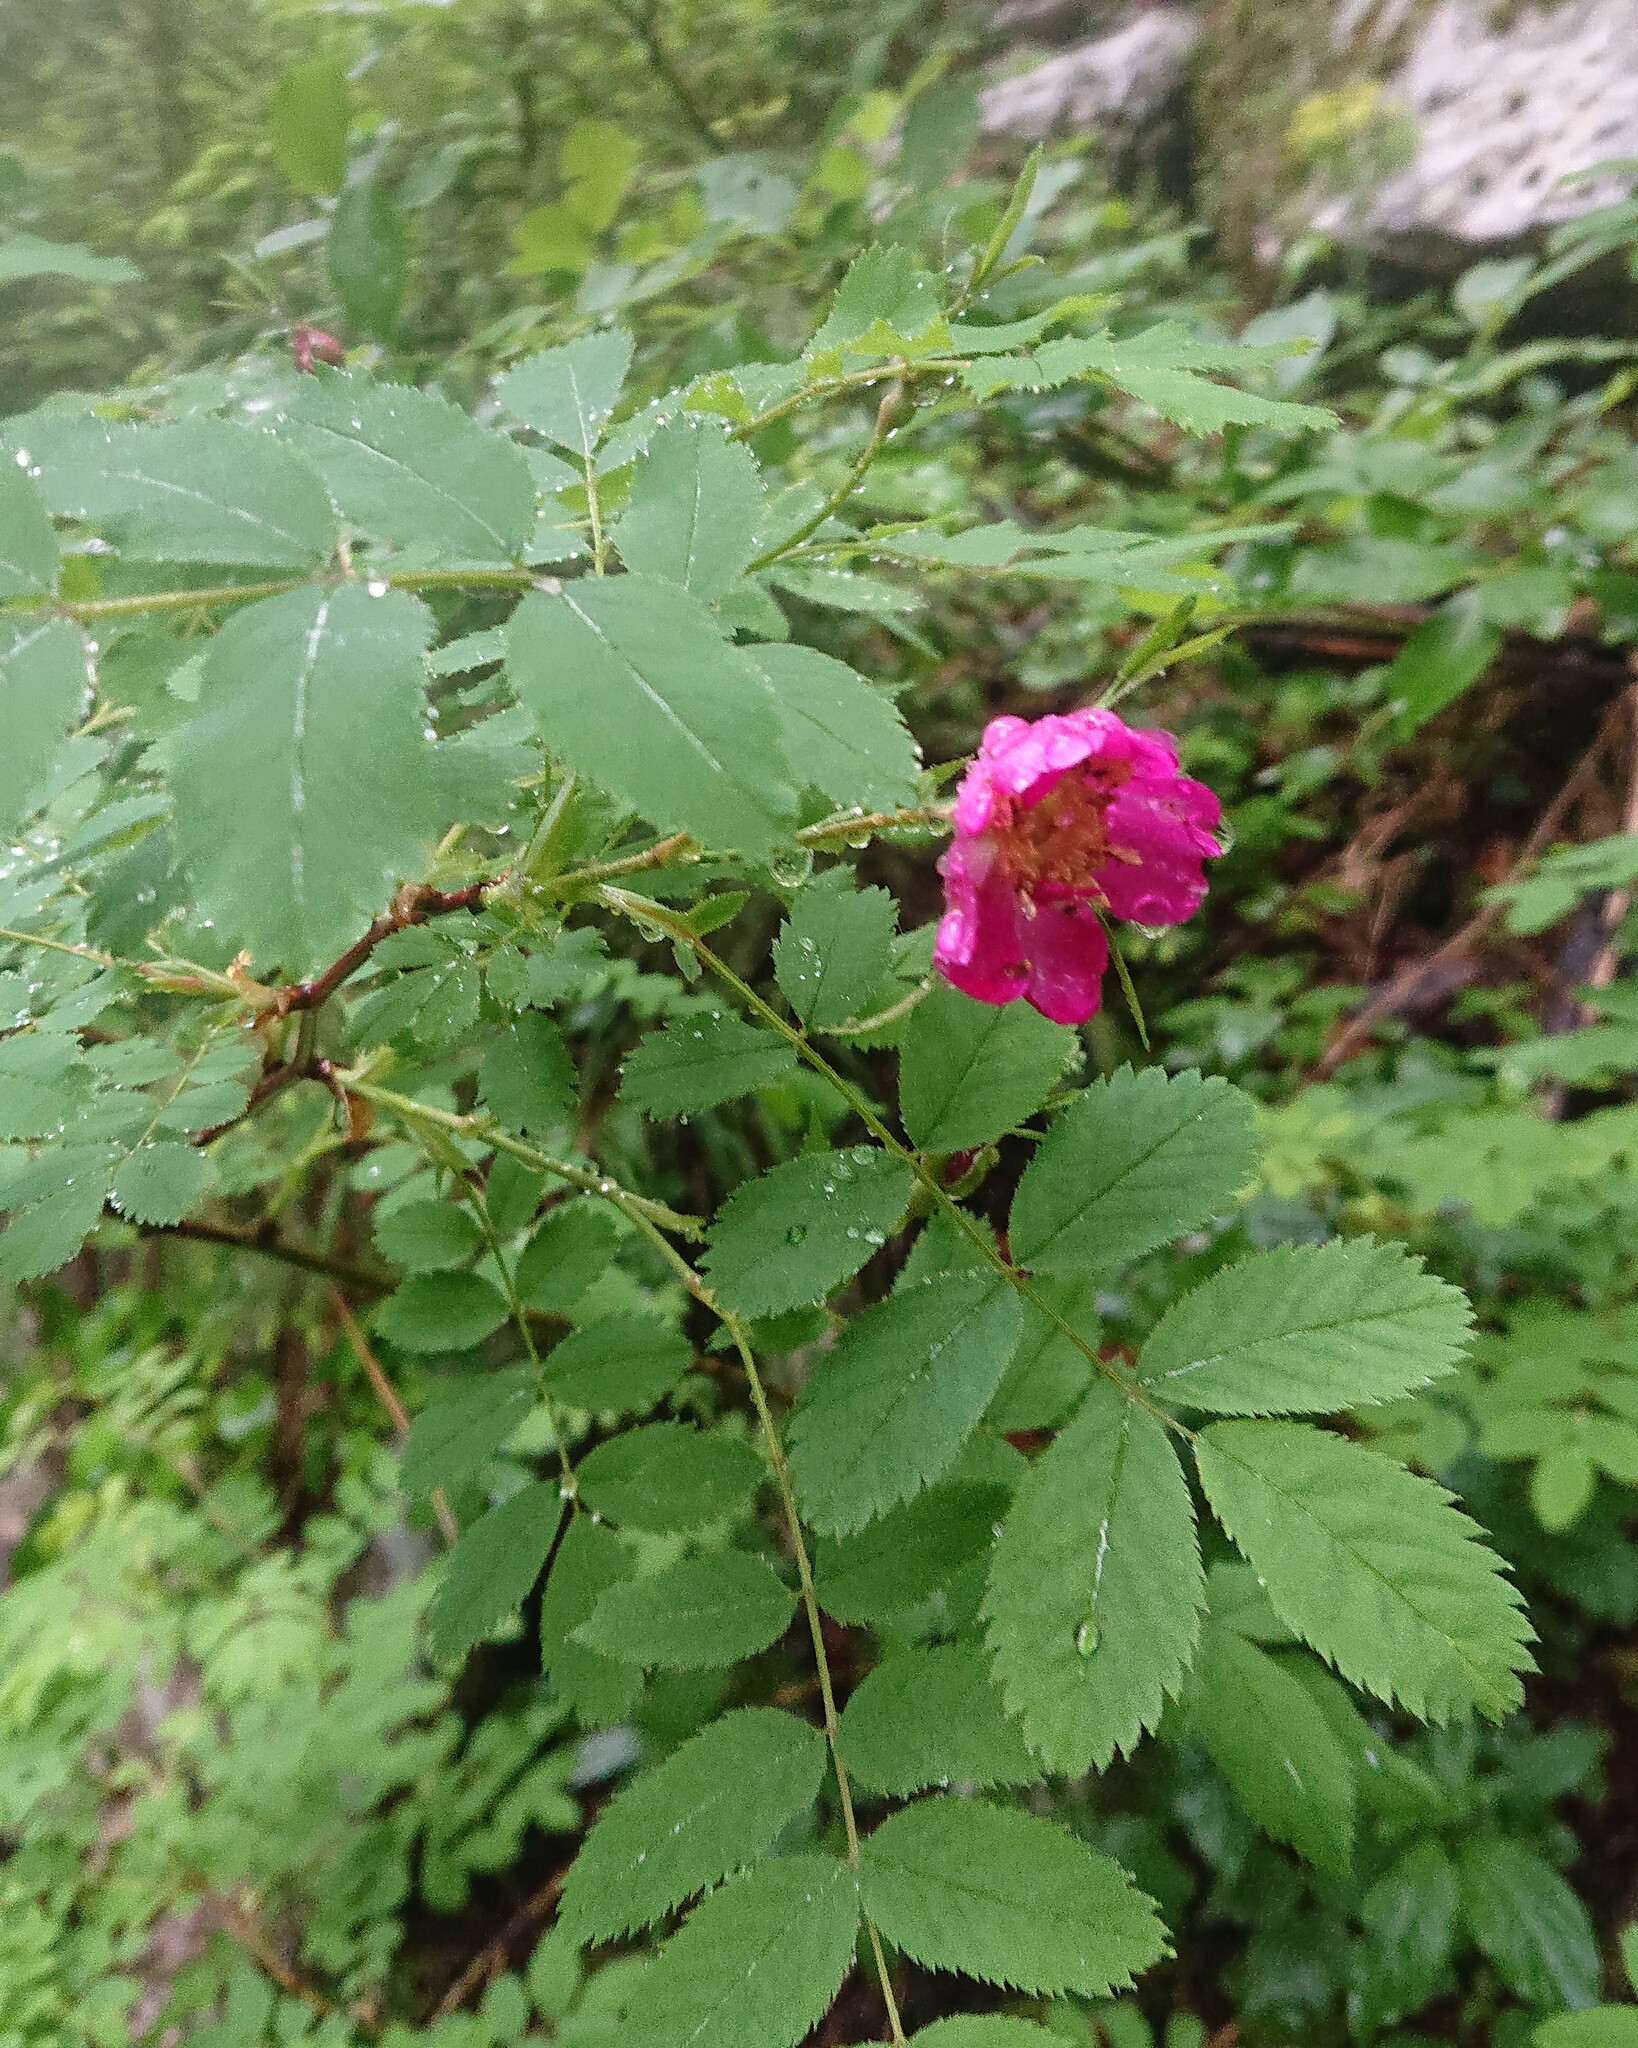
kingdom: Plantae
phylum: Tracheophyta
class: Magnoliopsida
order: Rosales
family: Rosaceae
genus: Rosa
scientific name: Rosa pendulina
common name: Alpine rose
